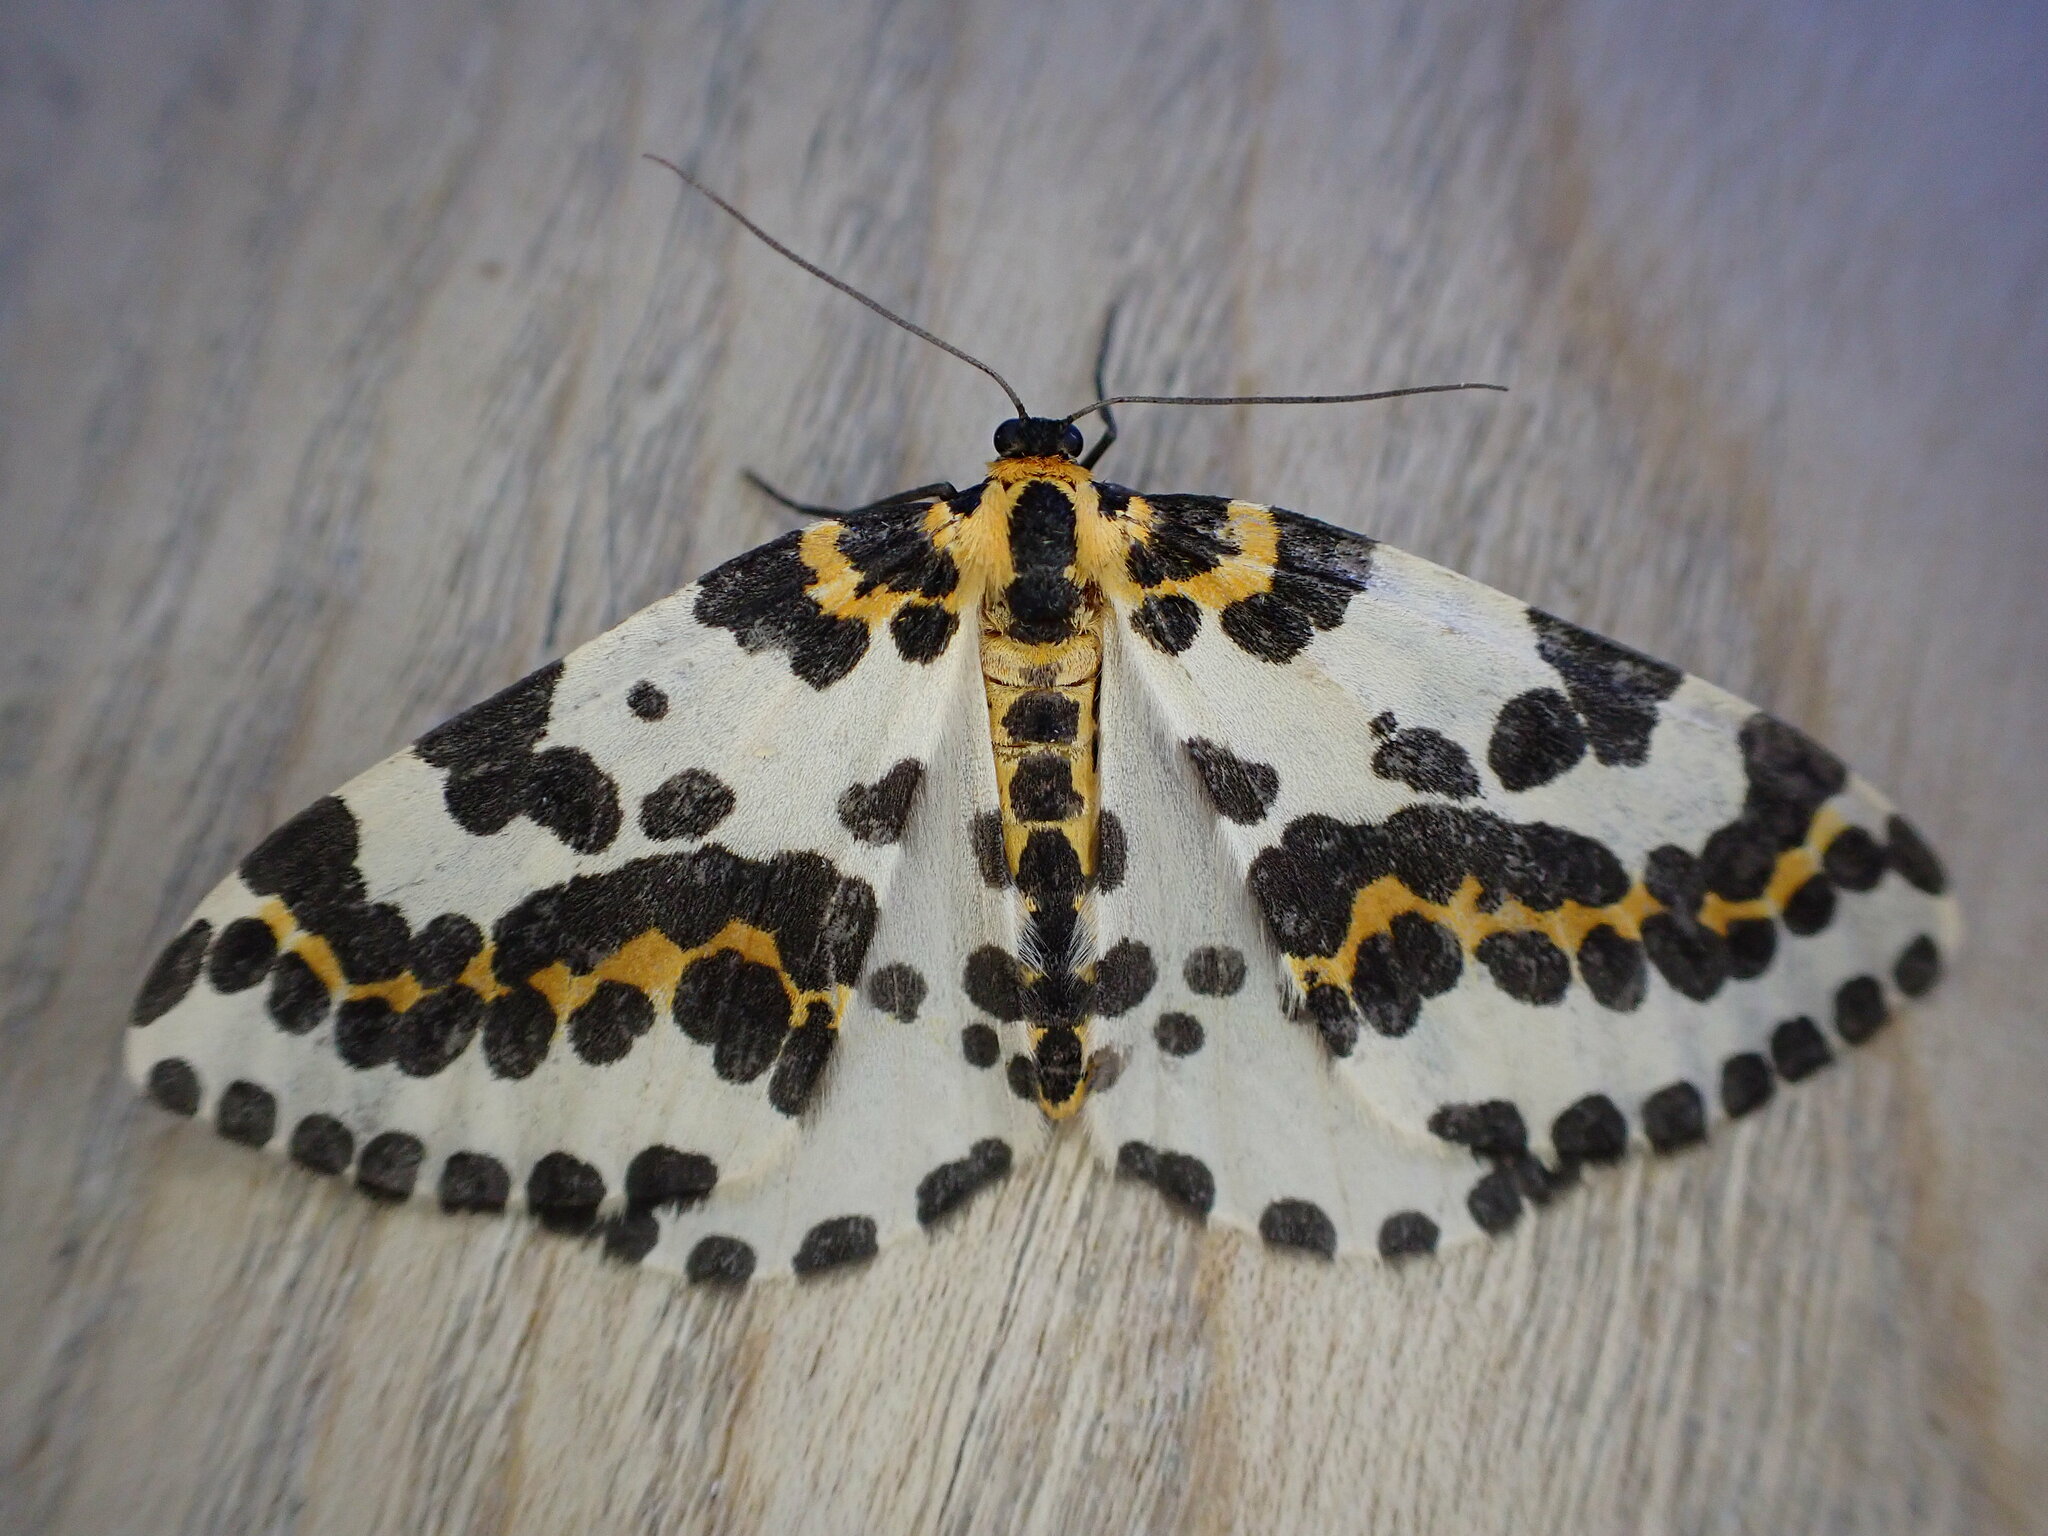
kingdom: Animalia
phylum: Arthropoda
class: Insecta
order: Lepidoptera
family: Geometridae
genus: Abraxas
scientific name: Abraxas grossulariata
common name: Magpie
